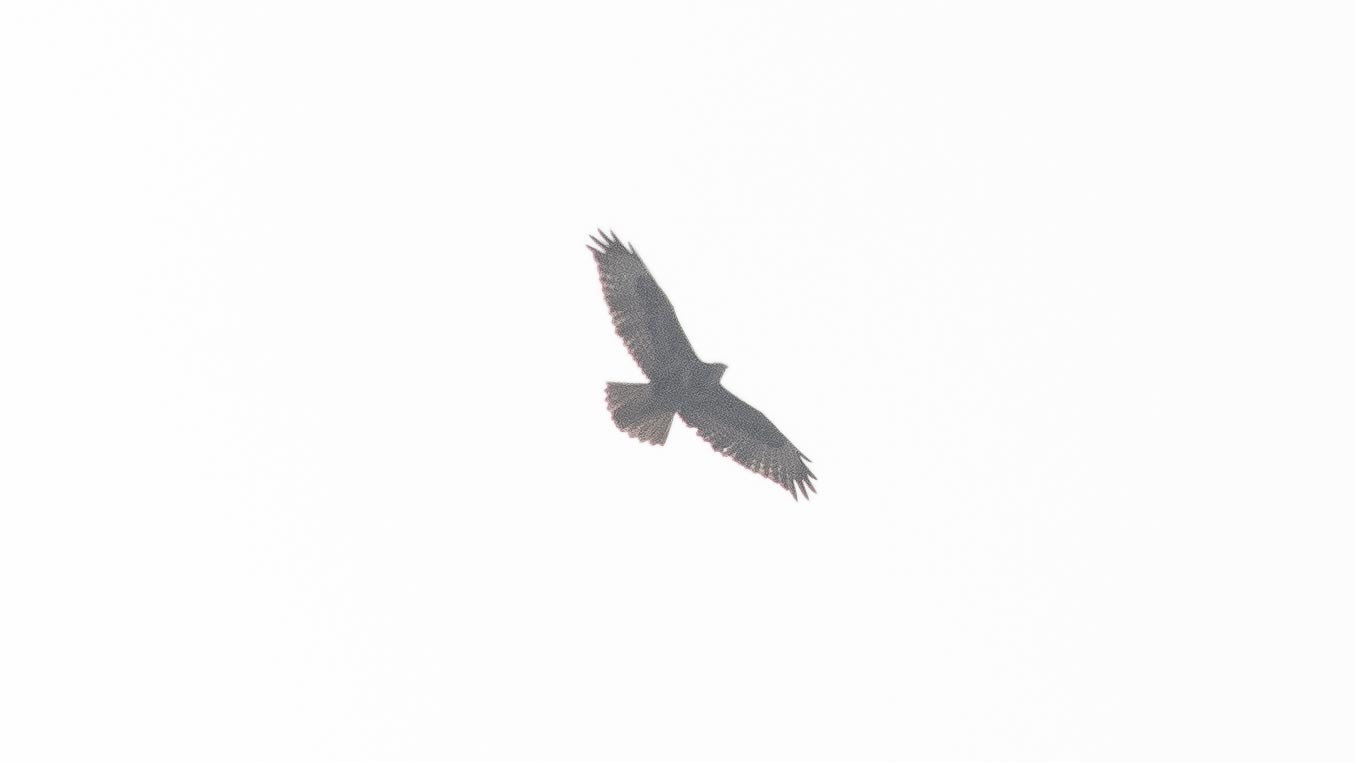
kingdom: Animalia
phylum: Chordata
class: Aves
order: Accipitriformes
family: Accipitridae
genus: Buteo
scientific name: Buteo buteo
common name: Common buzzard
